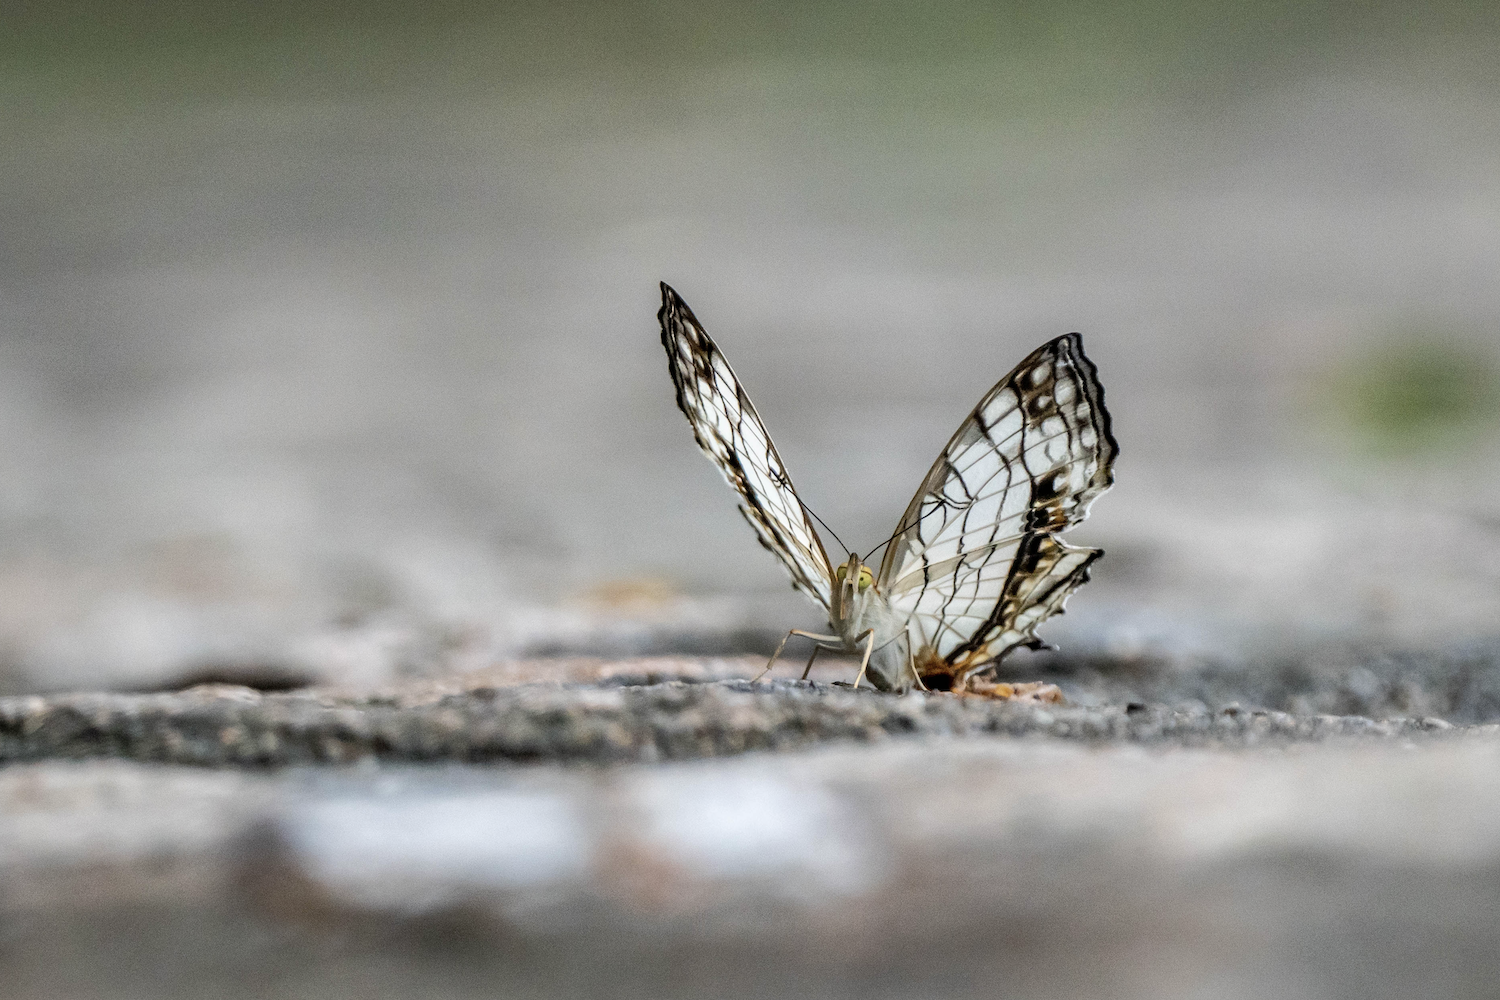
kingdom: Animalia
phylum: Arthropoda
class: Insecta
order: Lepidoptera
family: Nymphalidae
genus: Cyrestis
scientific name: Cyrestis thyodamas
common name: Common mapwing
